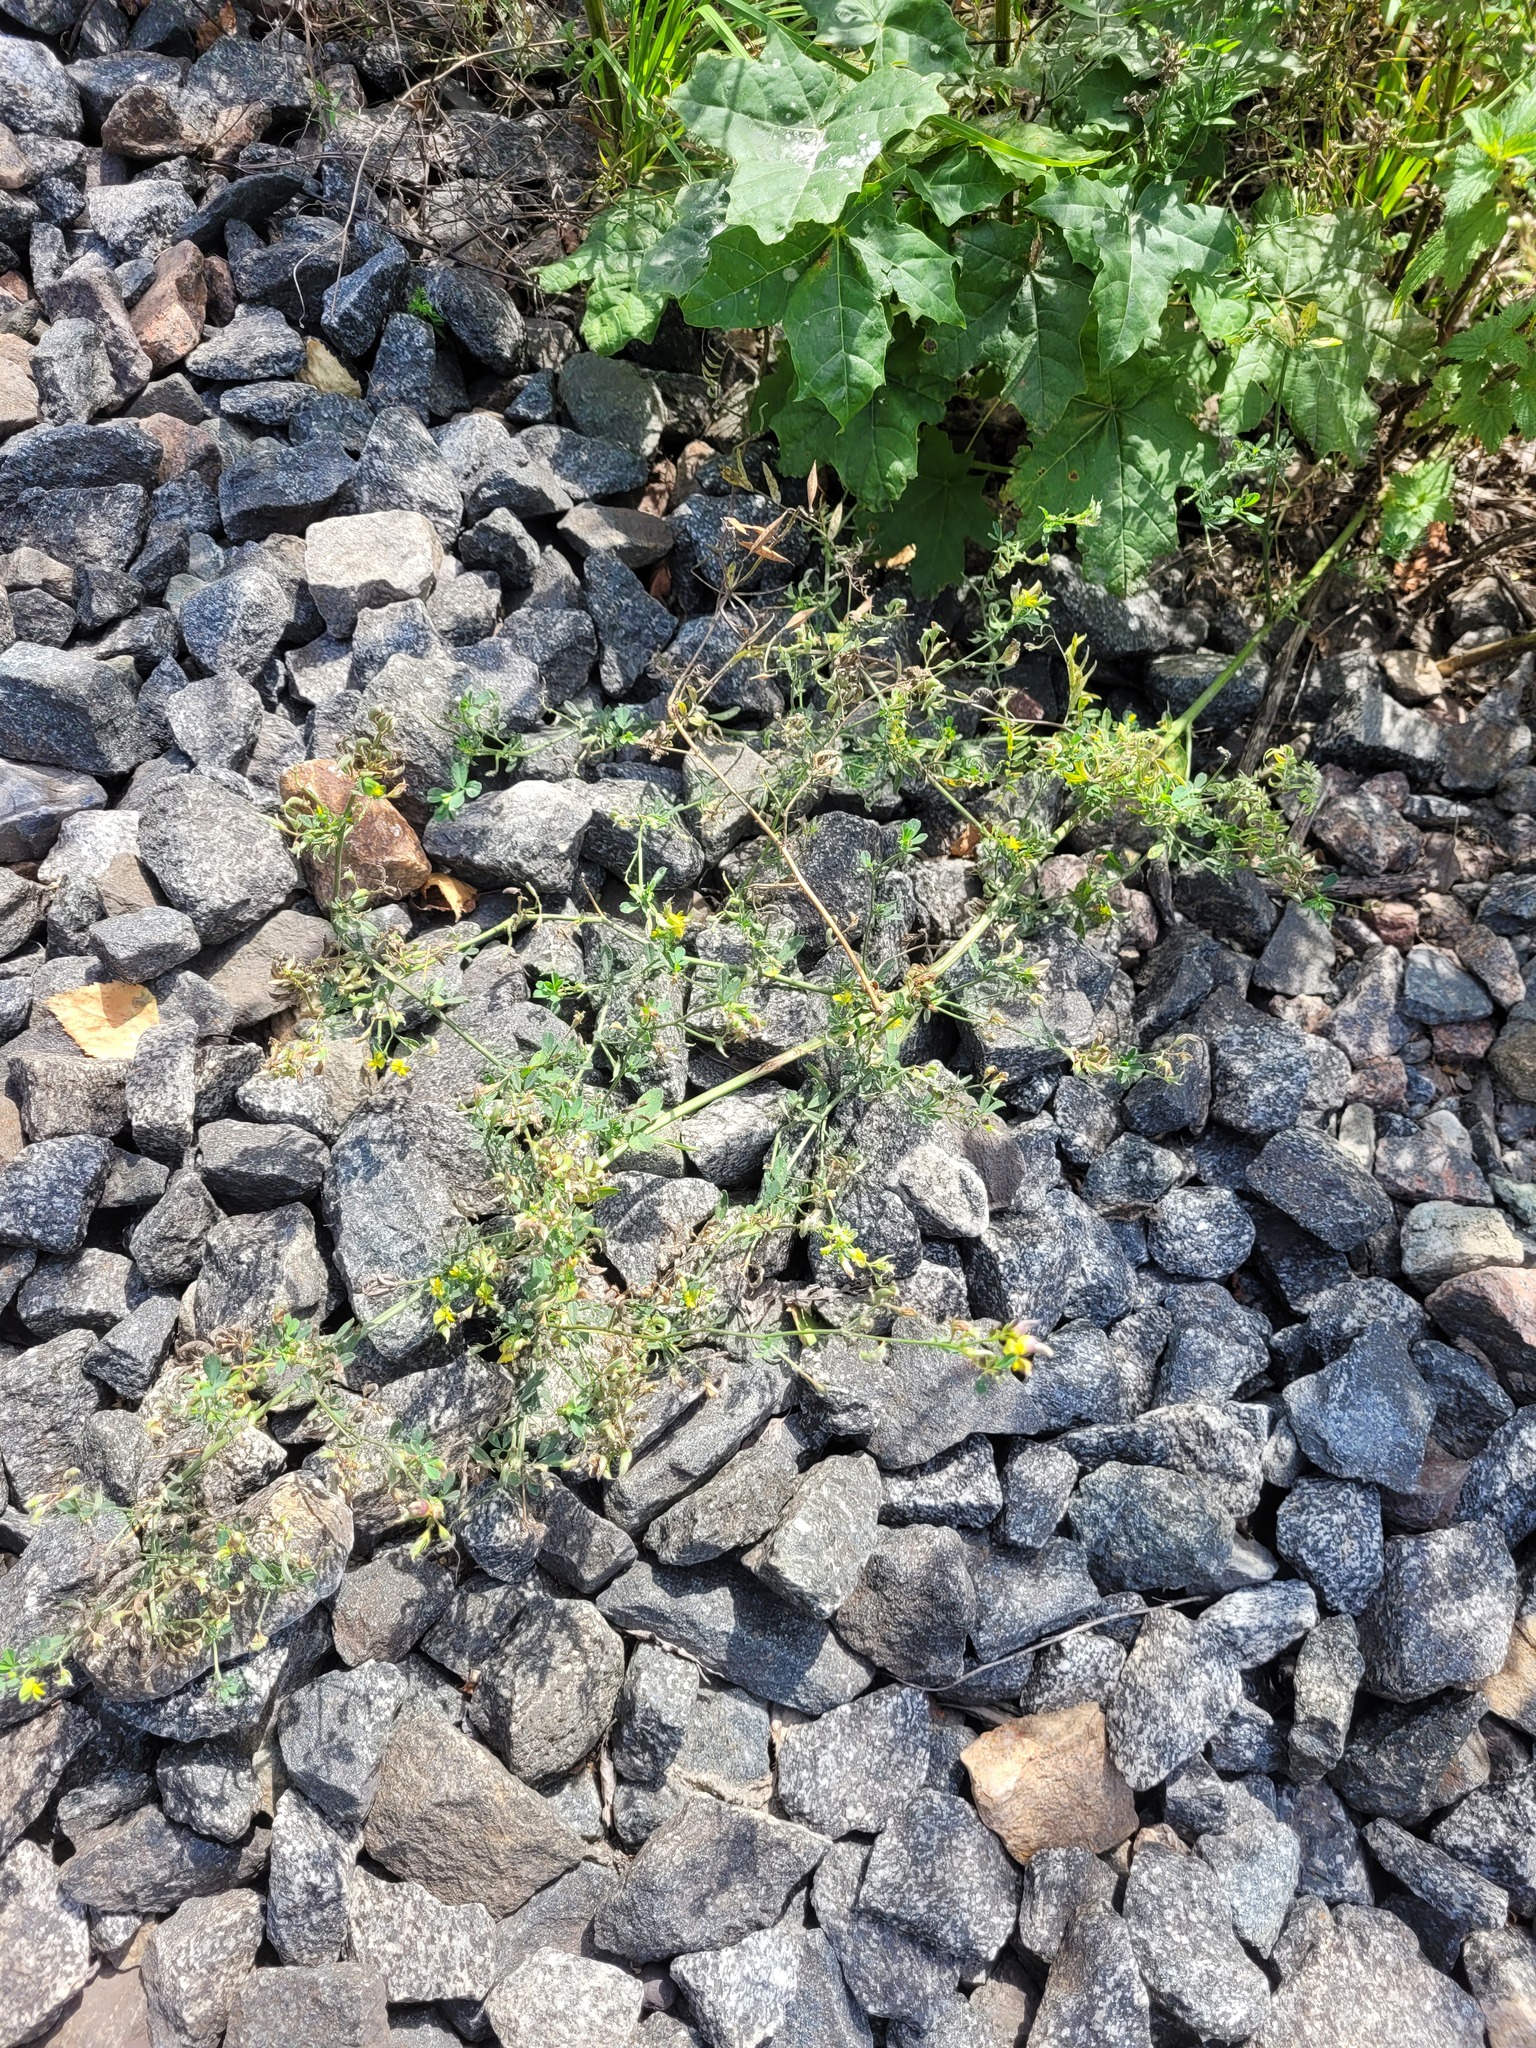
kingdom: Plantae
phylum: Tracheophyta
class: Magnoliopsida
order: Fabales
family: Fabaceae
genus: Medicago
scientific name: Medicago varia
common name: Sand lucerne
